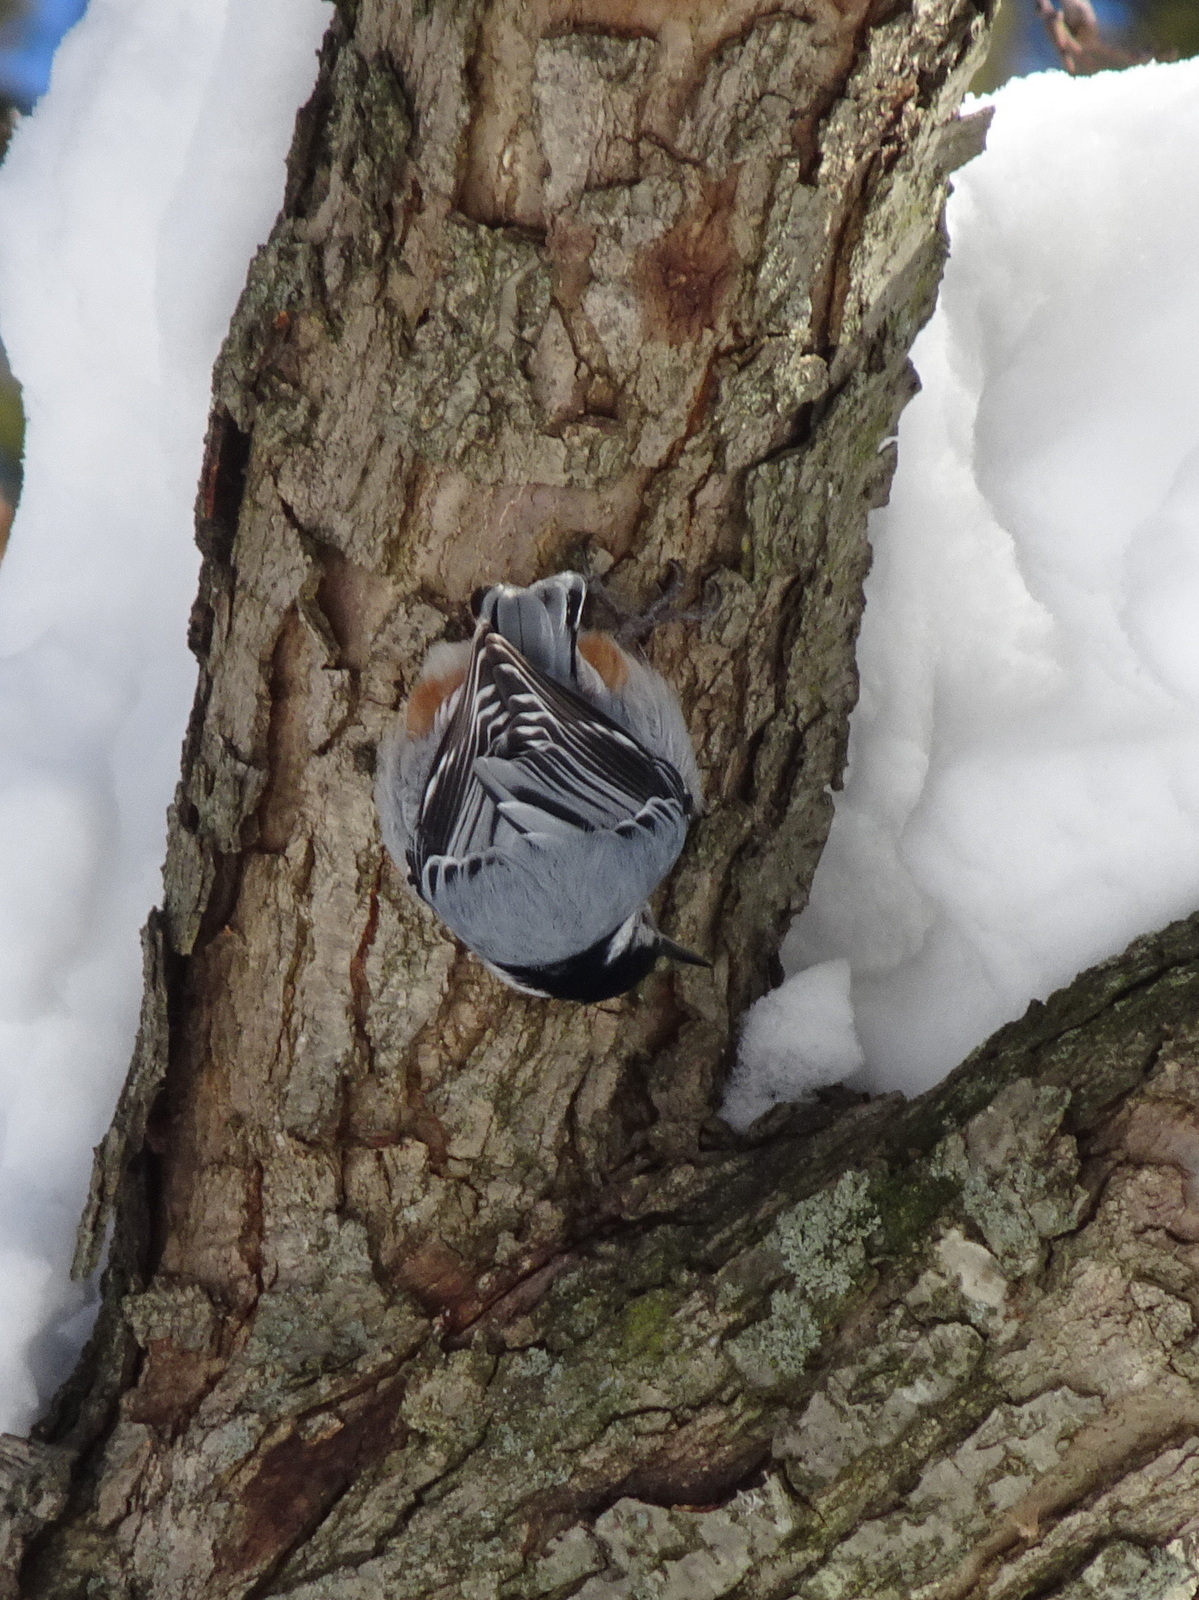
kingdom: Animalia
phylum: Chordata
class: Aves
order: Passeriformes
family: Sittidae
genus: Sitta
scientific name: Sitta carolinensis
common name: White-breasted nuthatch
